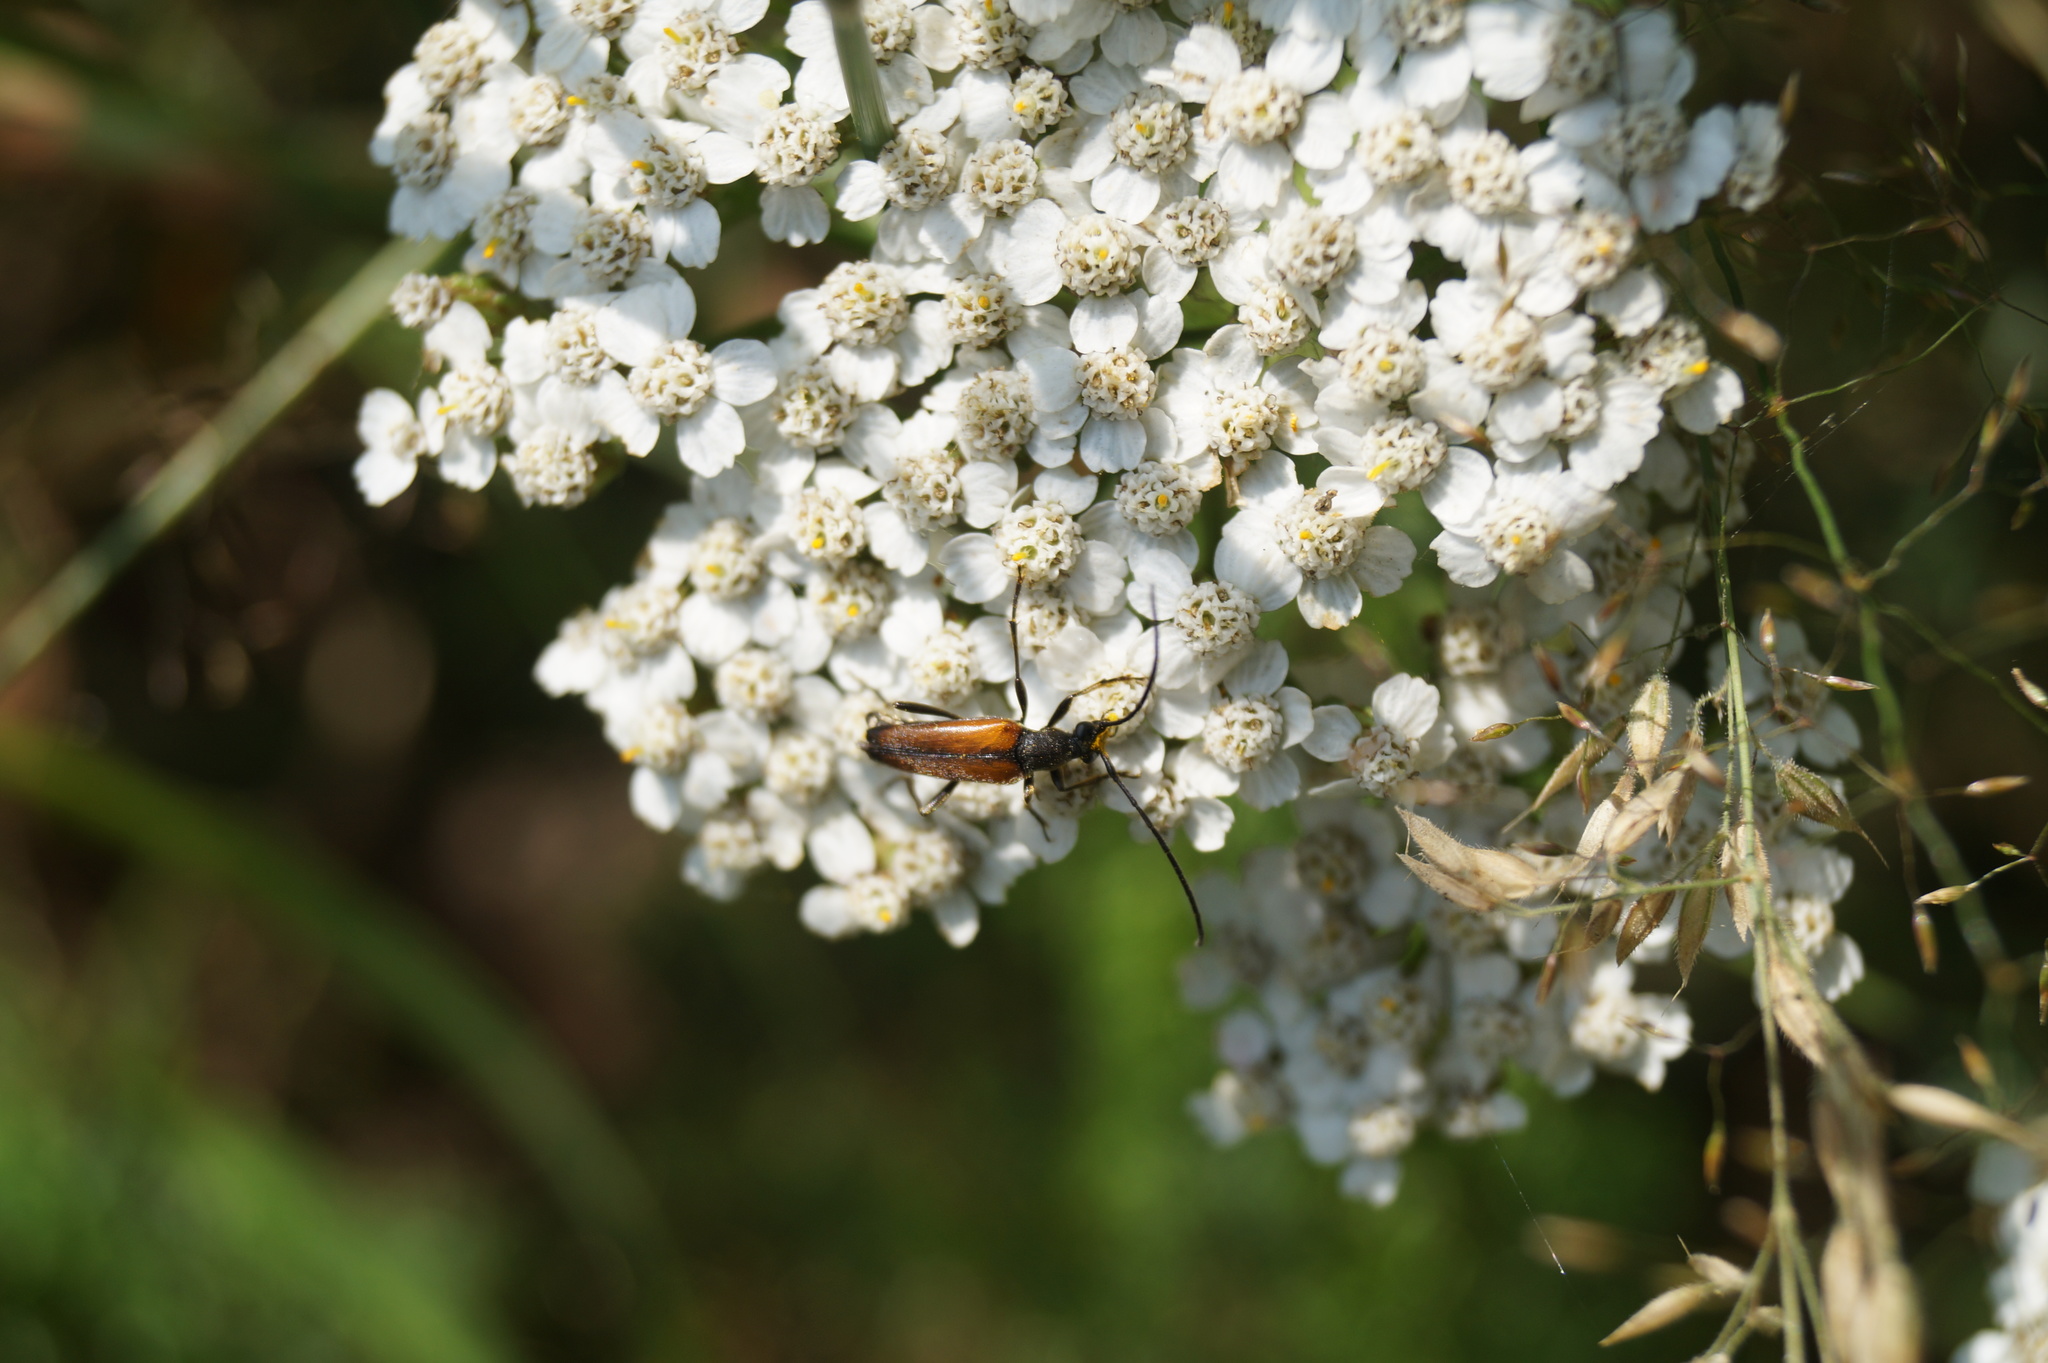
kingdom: Animalia
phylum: Arthropoda
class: Insecta
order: Coleoptera
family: Cerambycidae
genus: Stenurella
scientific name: Stenurella melanura
